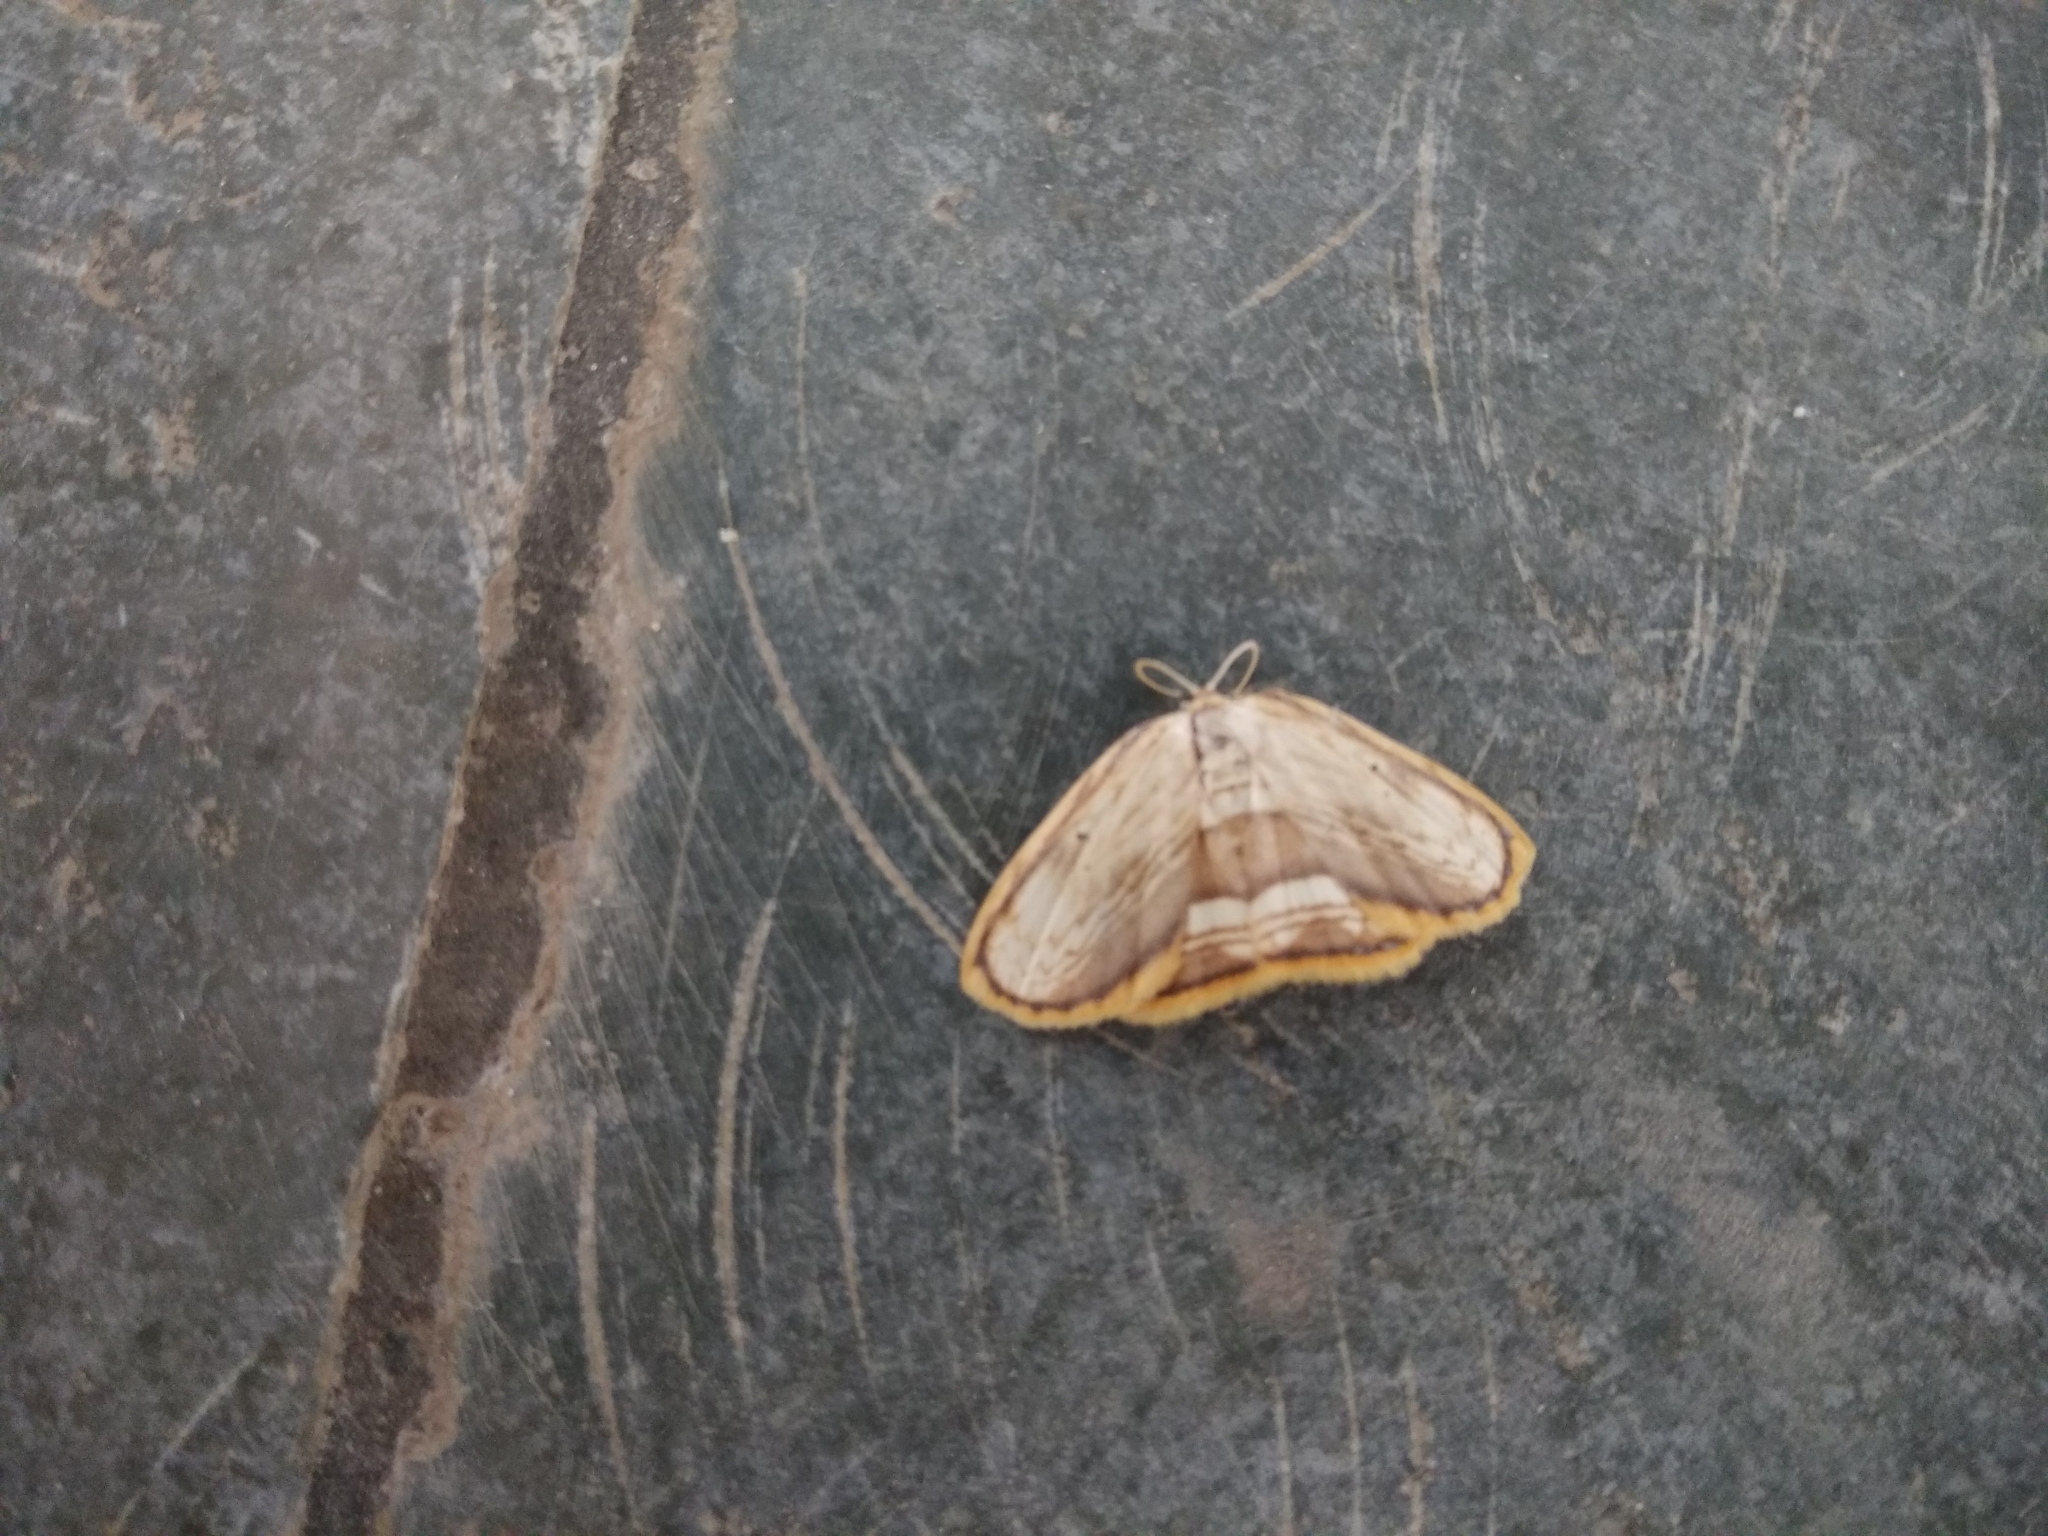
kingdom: Animalia
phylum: Arthropoda
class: Insecta
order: Lepidoptera
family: Drepanidae
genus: Drapetodes
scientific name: Drapetodes fratercula
